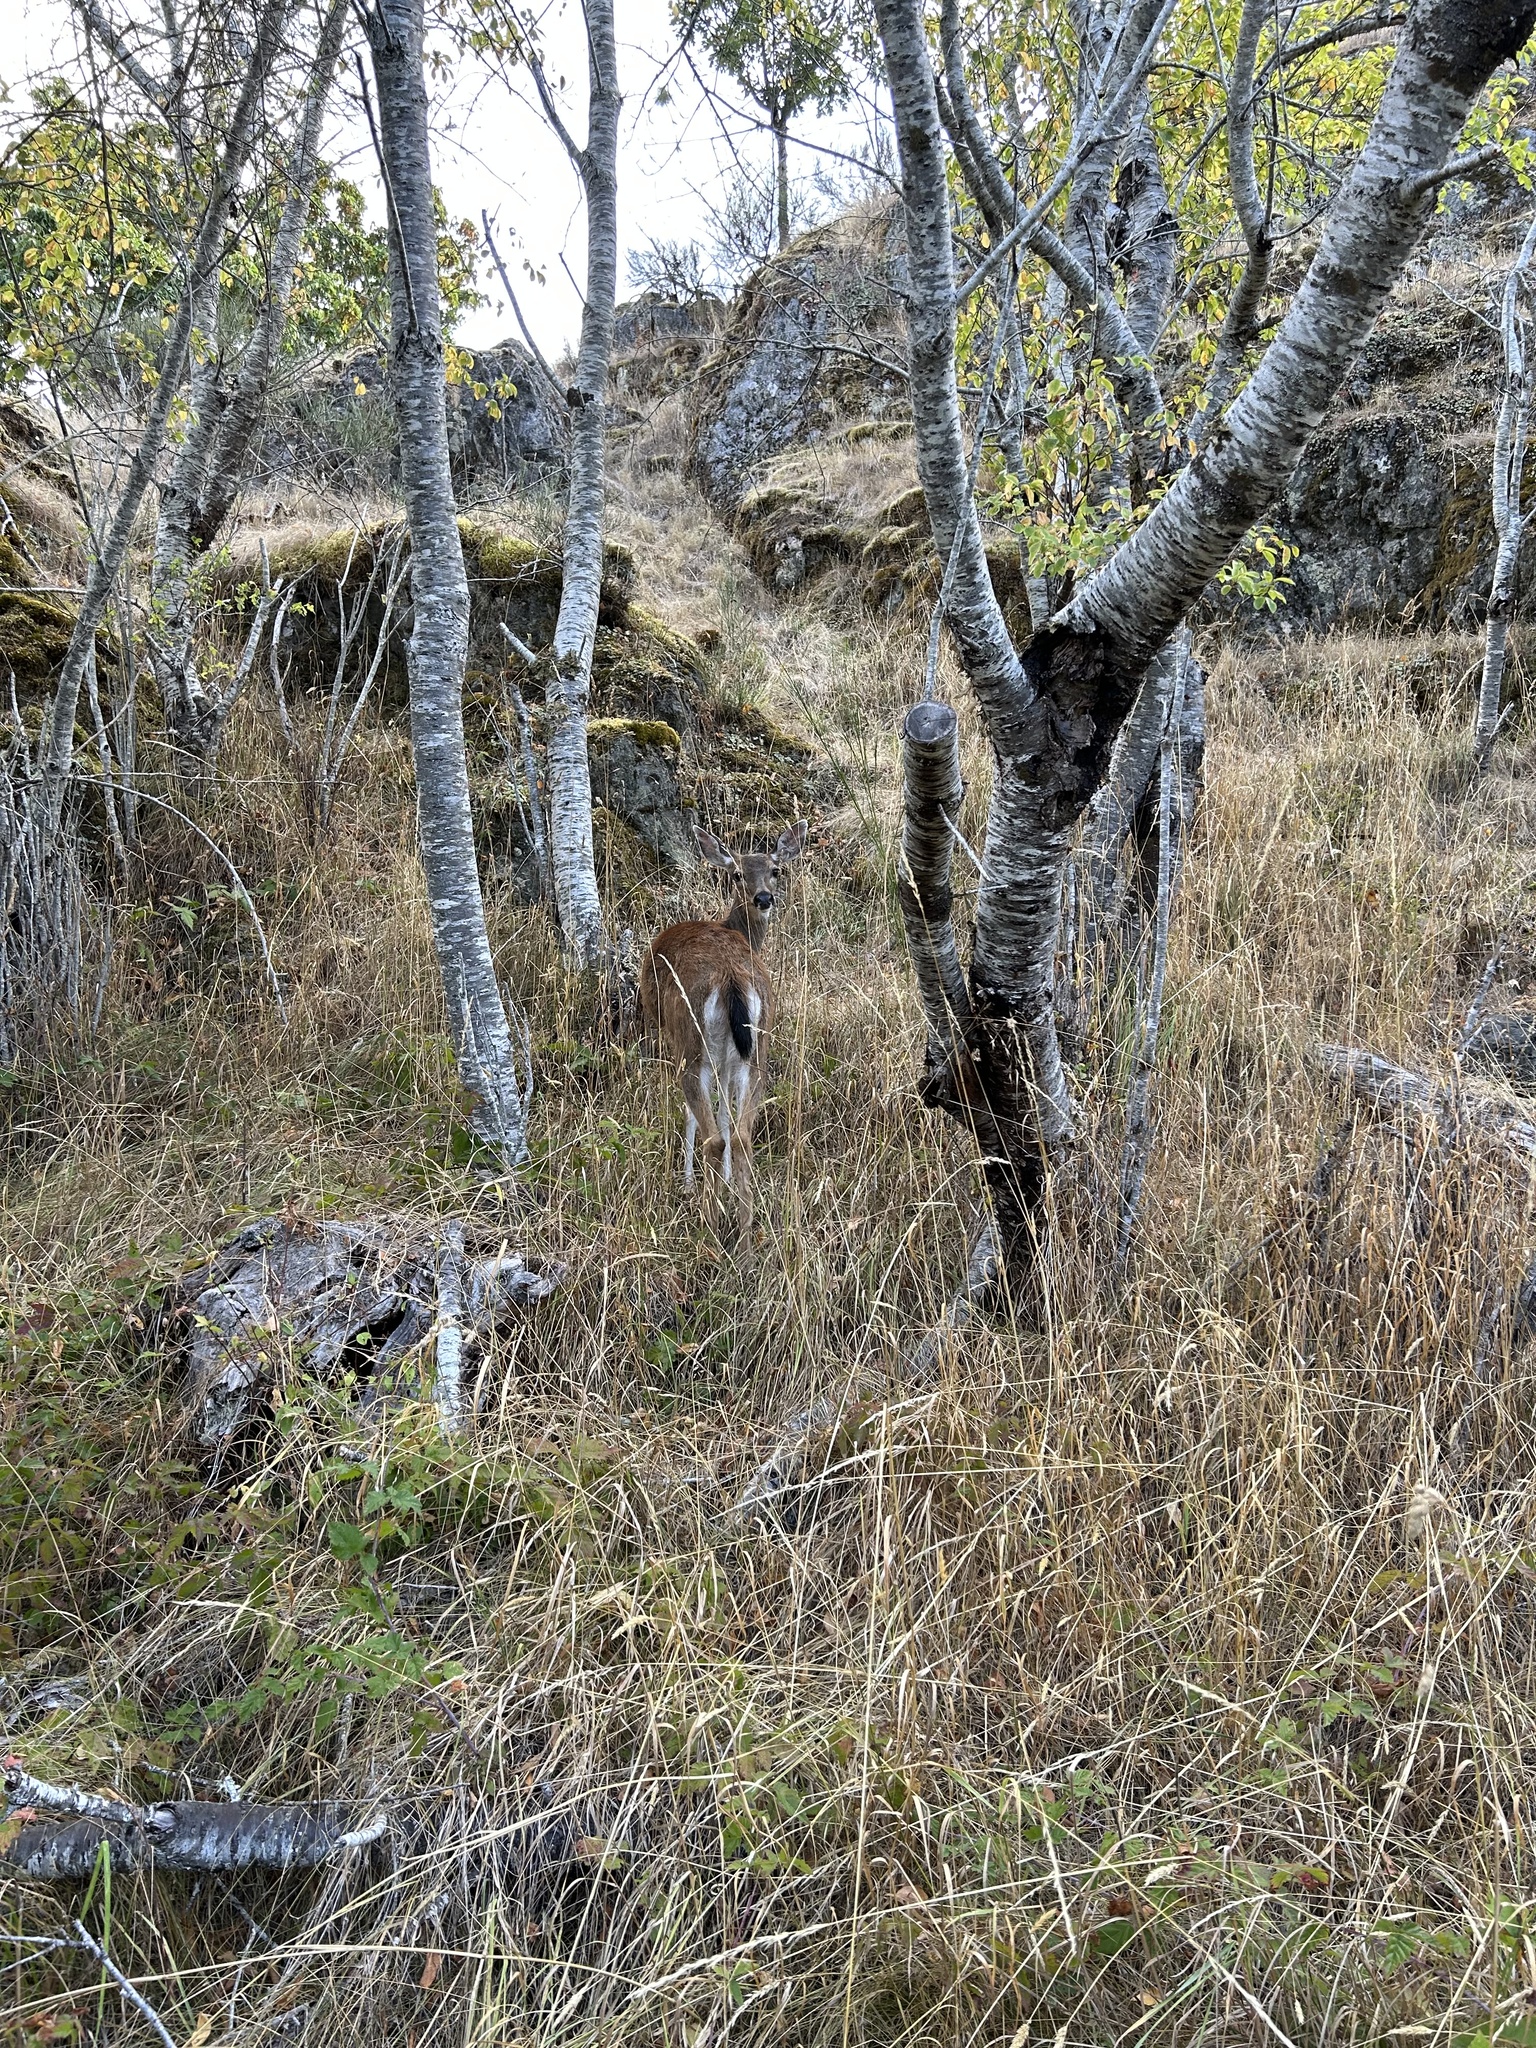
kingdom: Animalia
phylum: Chordata
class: Mammalia
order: Artiodactyla
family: Cervidae
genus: Odocoileus
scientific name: Odocoileus hemionus
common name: Mule deer
